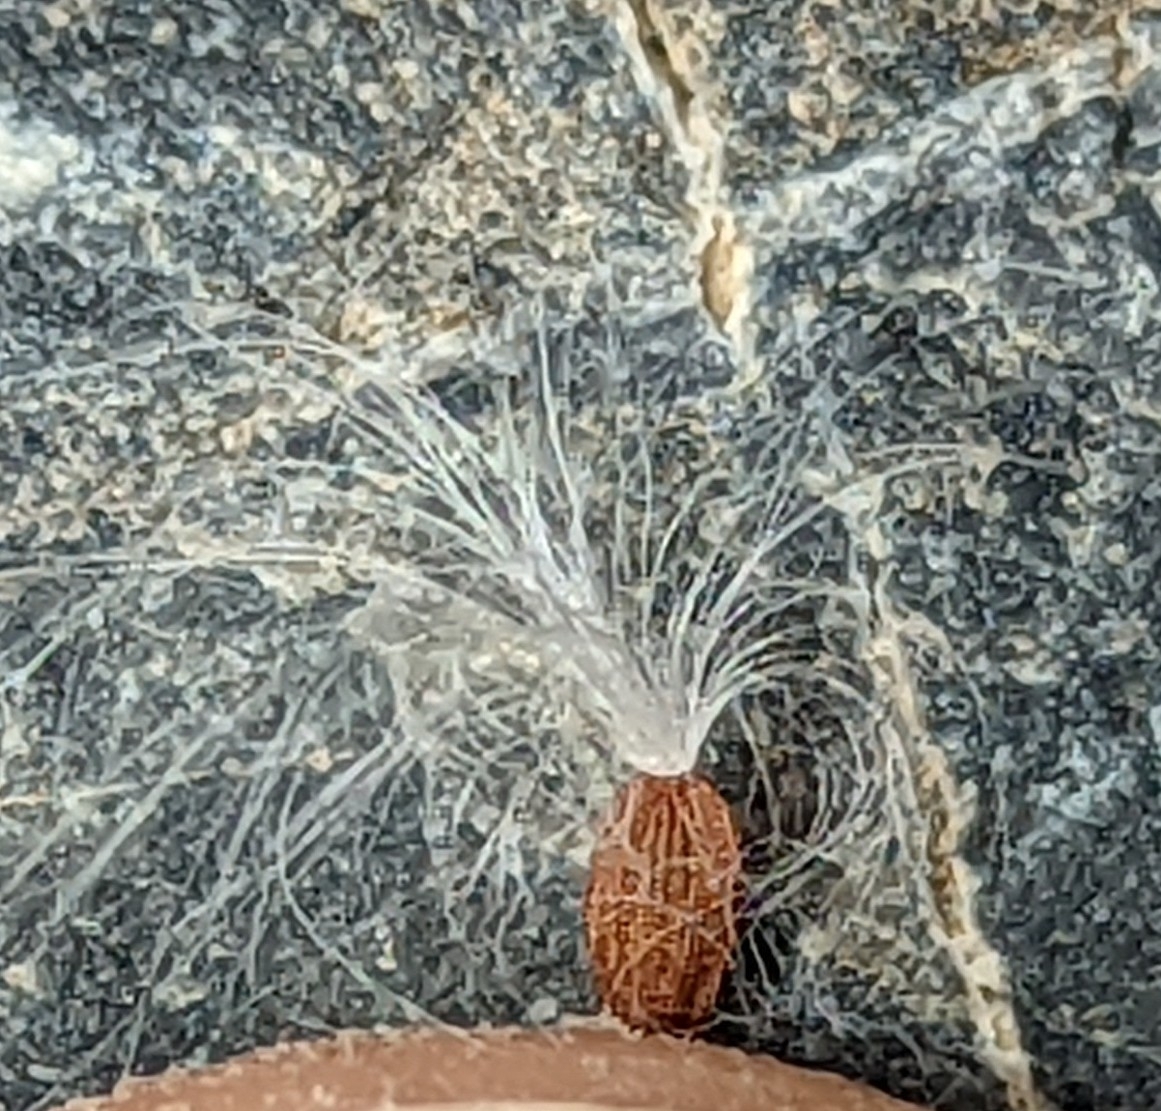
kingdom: Plantae
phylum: Tracheophyta
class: Magnoliopsida
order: Asterales
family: Asteraceae
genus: Sonchus
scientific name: Sonchus oleraceus
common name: Common sowthistle
